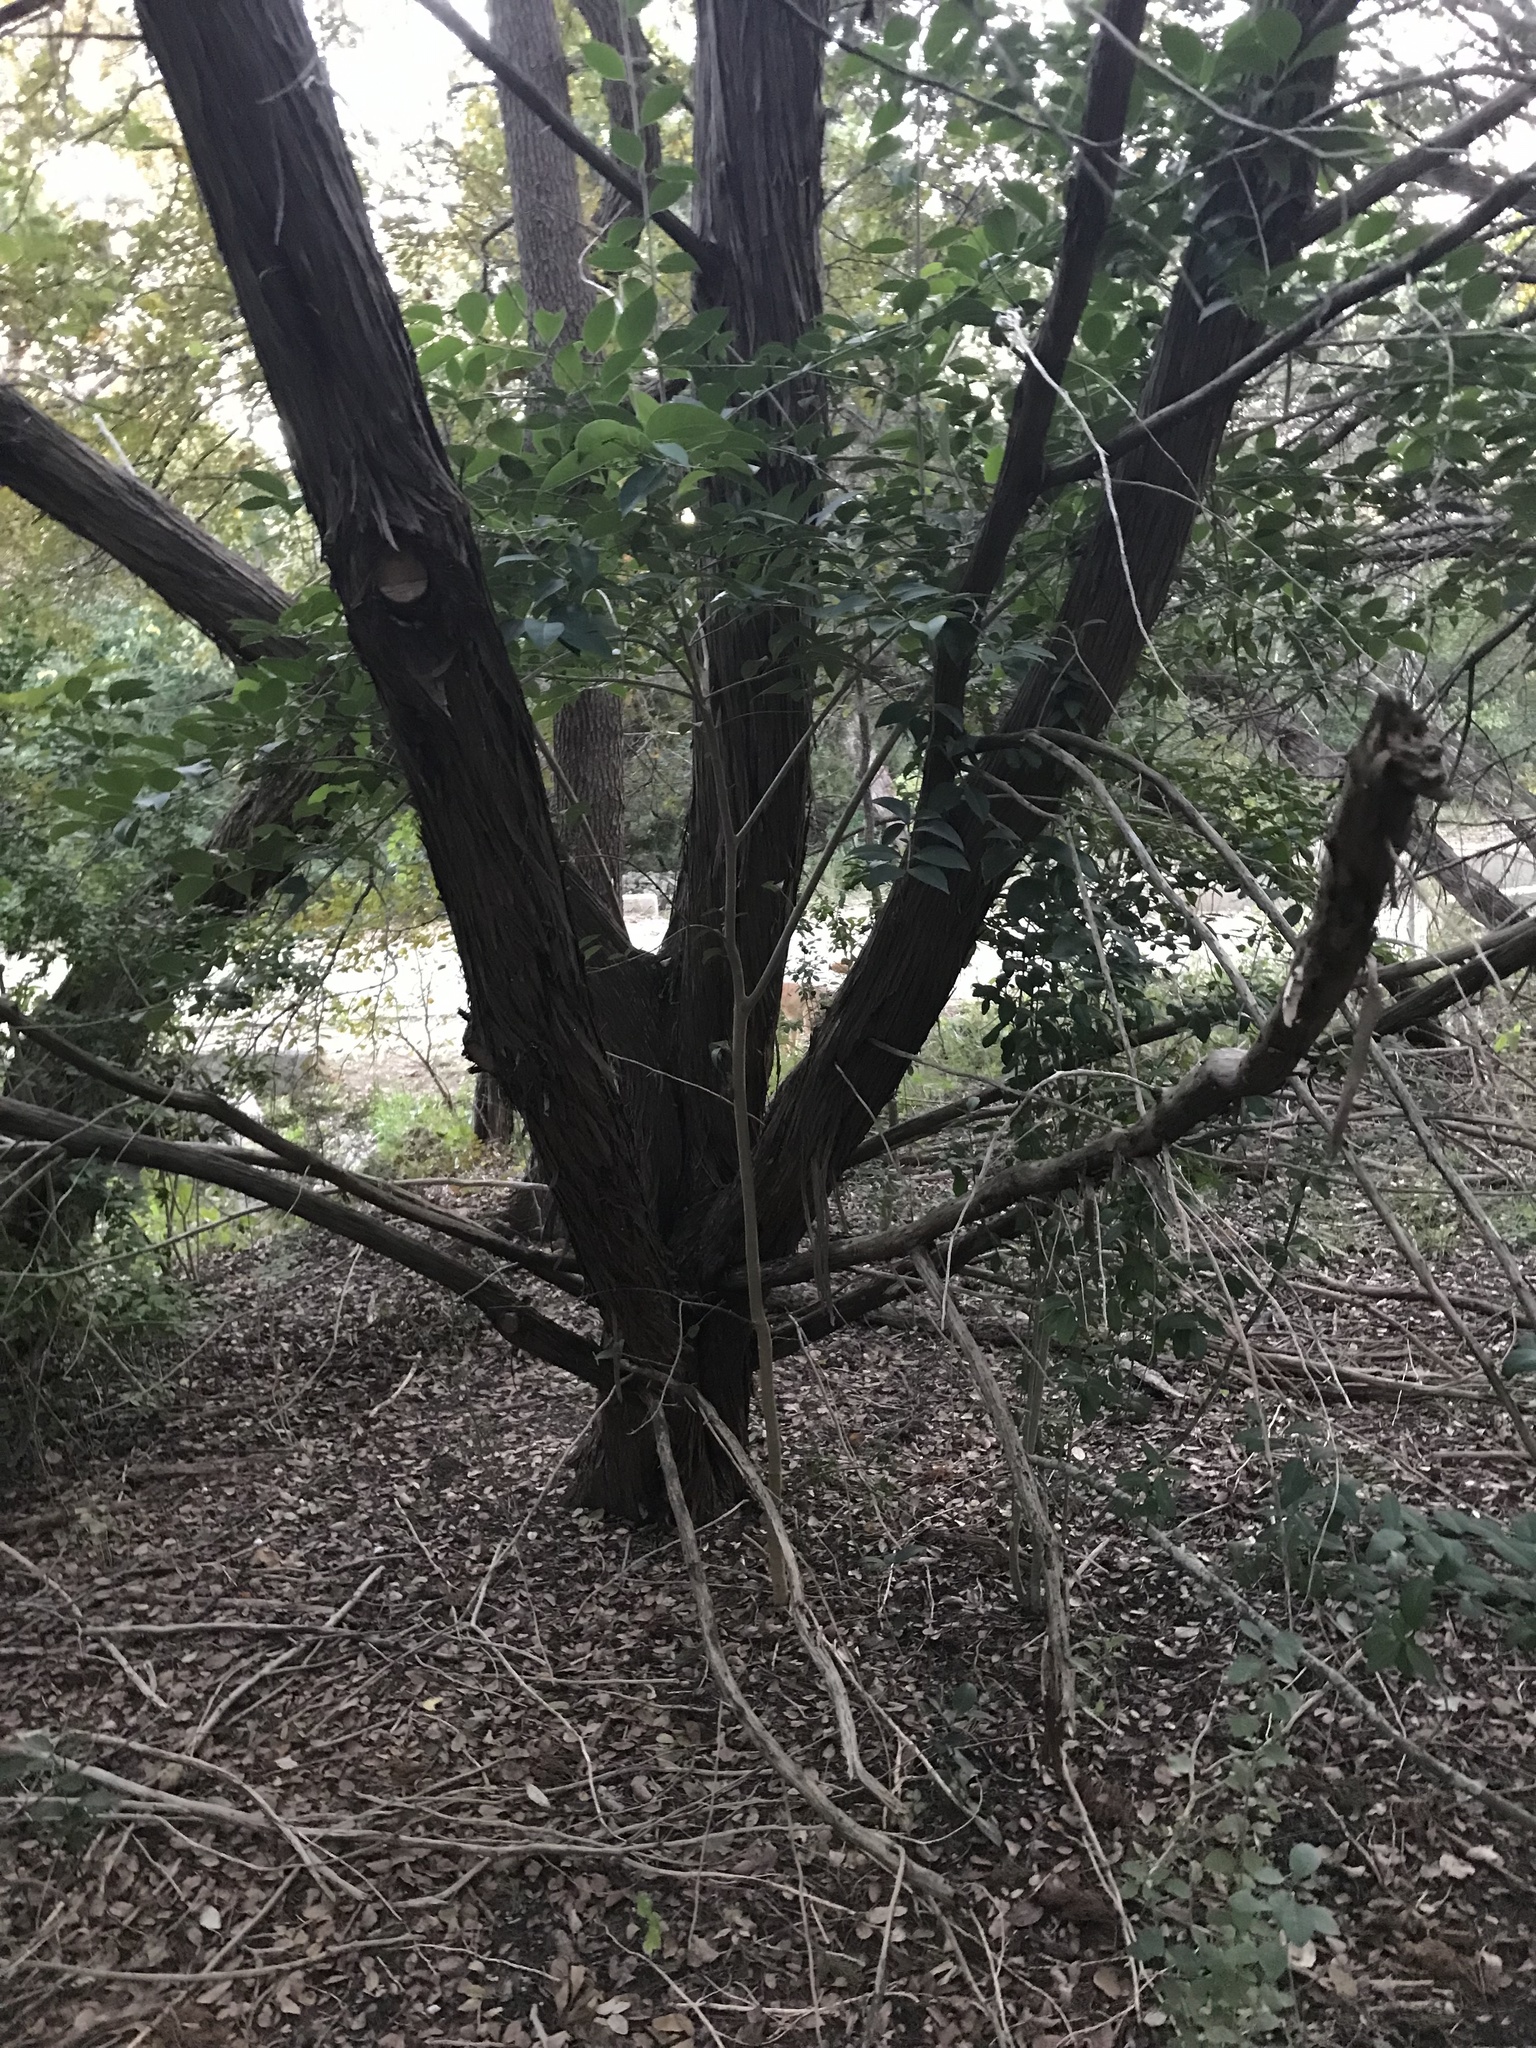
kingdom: Plantae
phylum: Tracheophyta
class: Magnoliopsida
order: Lamiales
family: Oleaceae
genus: Ligustrum
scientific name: Ligustrum lucidum
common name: Glossy privet
